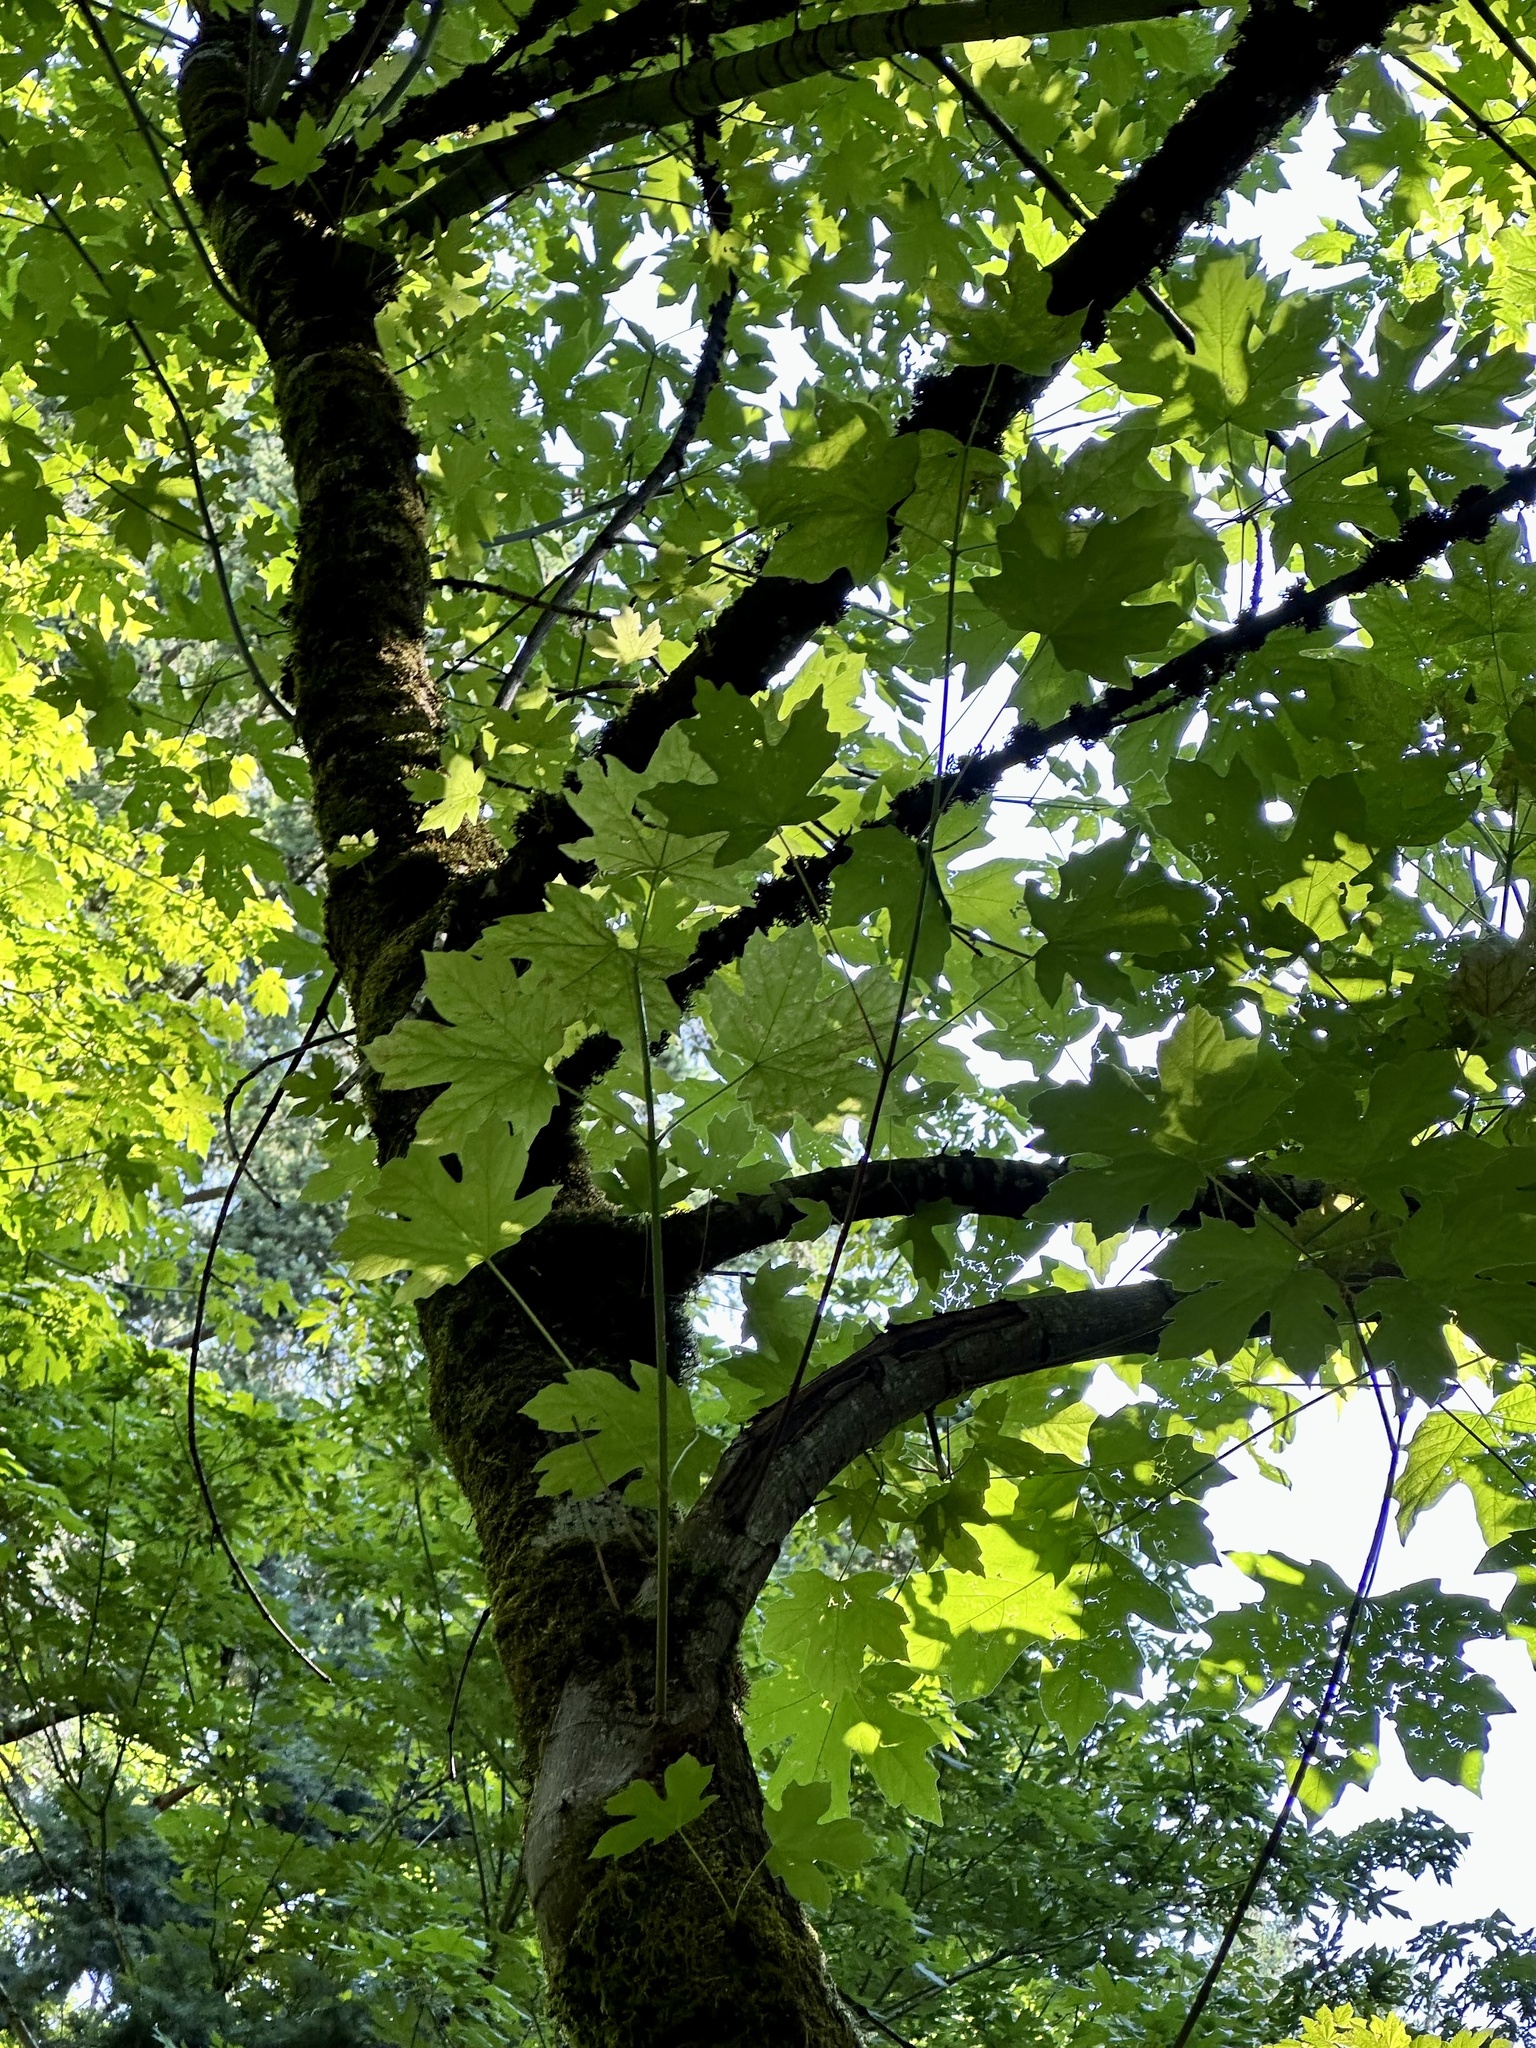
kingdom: Plantae
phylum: Tracheophyta
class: Magnoliopsida
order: Sapindales
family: Sapindaceae
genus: Acer
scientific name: Acer macrophyllum
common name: Oregon maple
